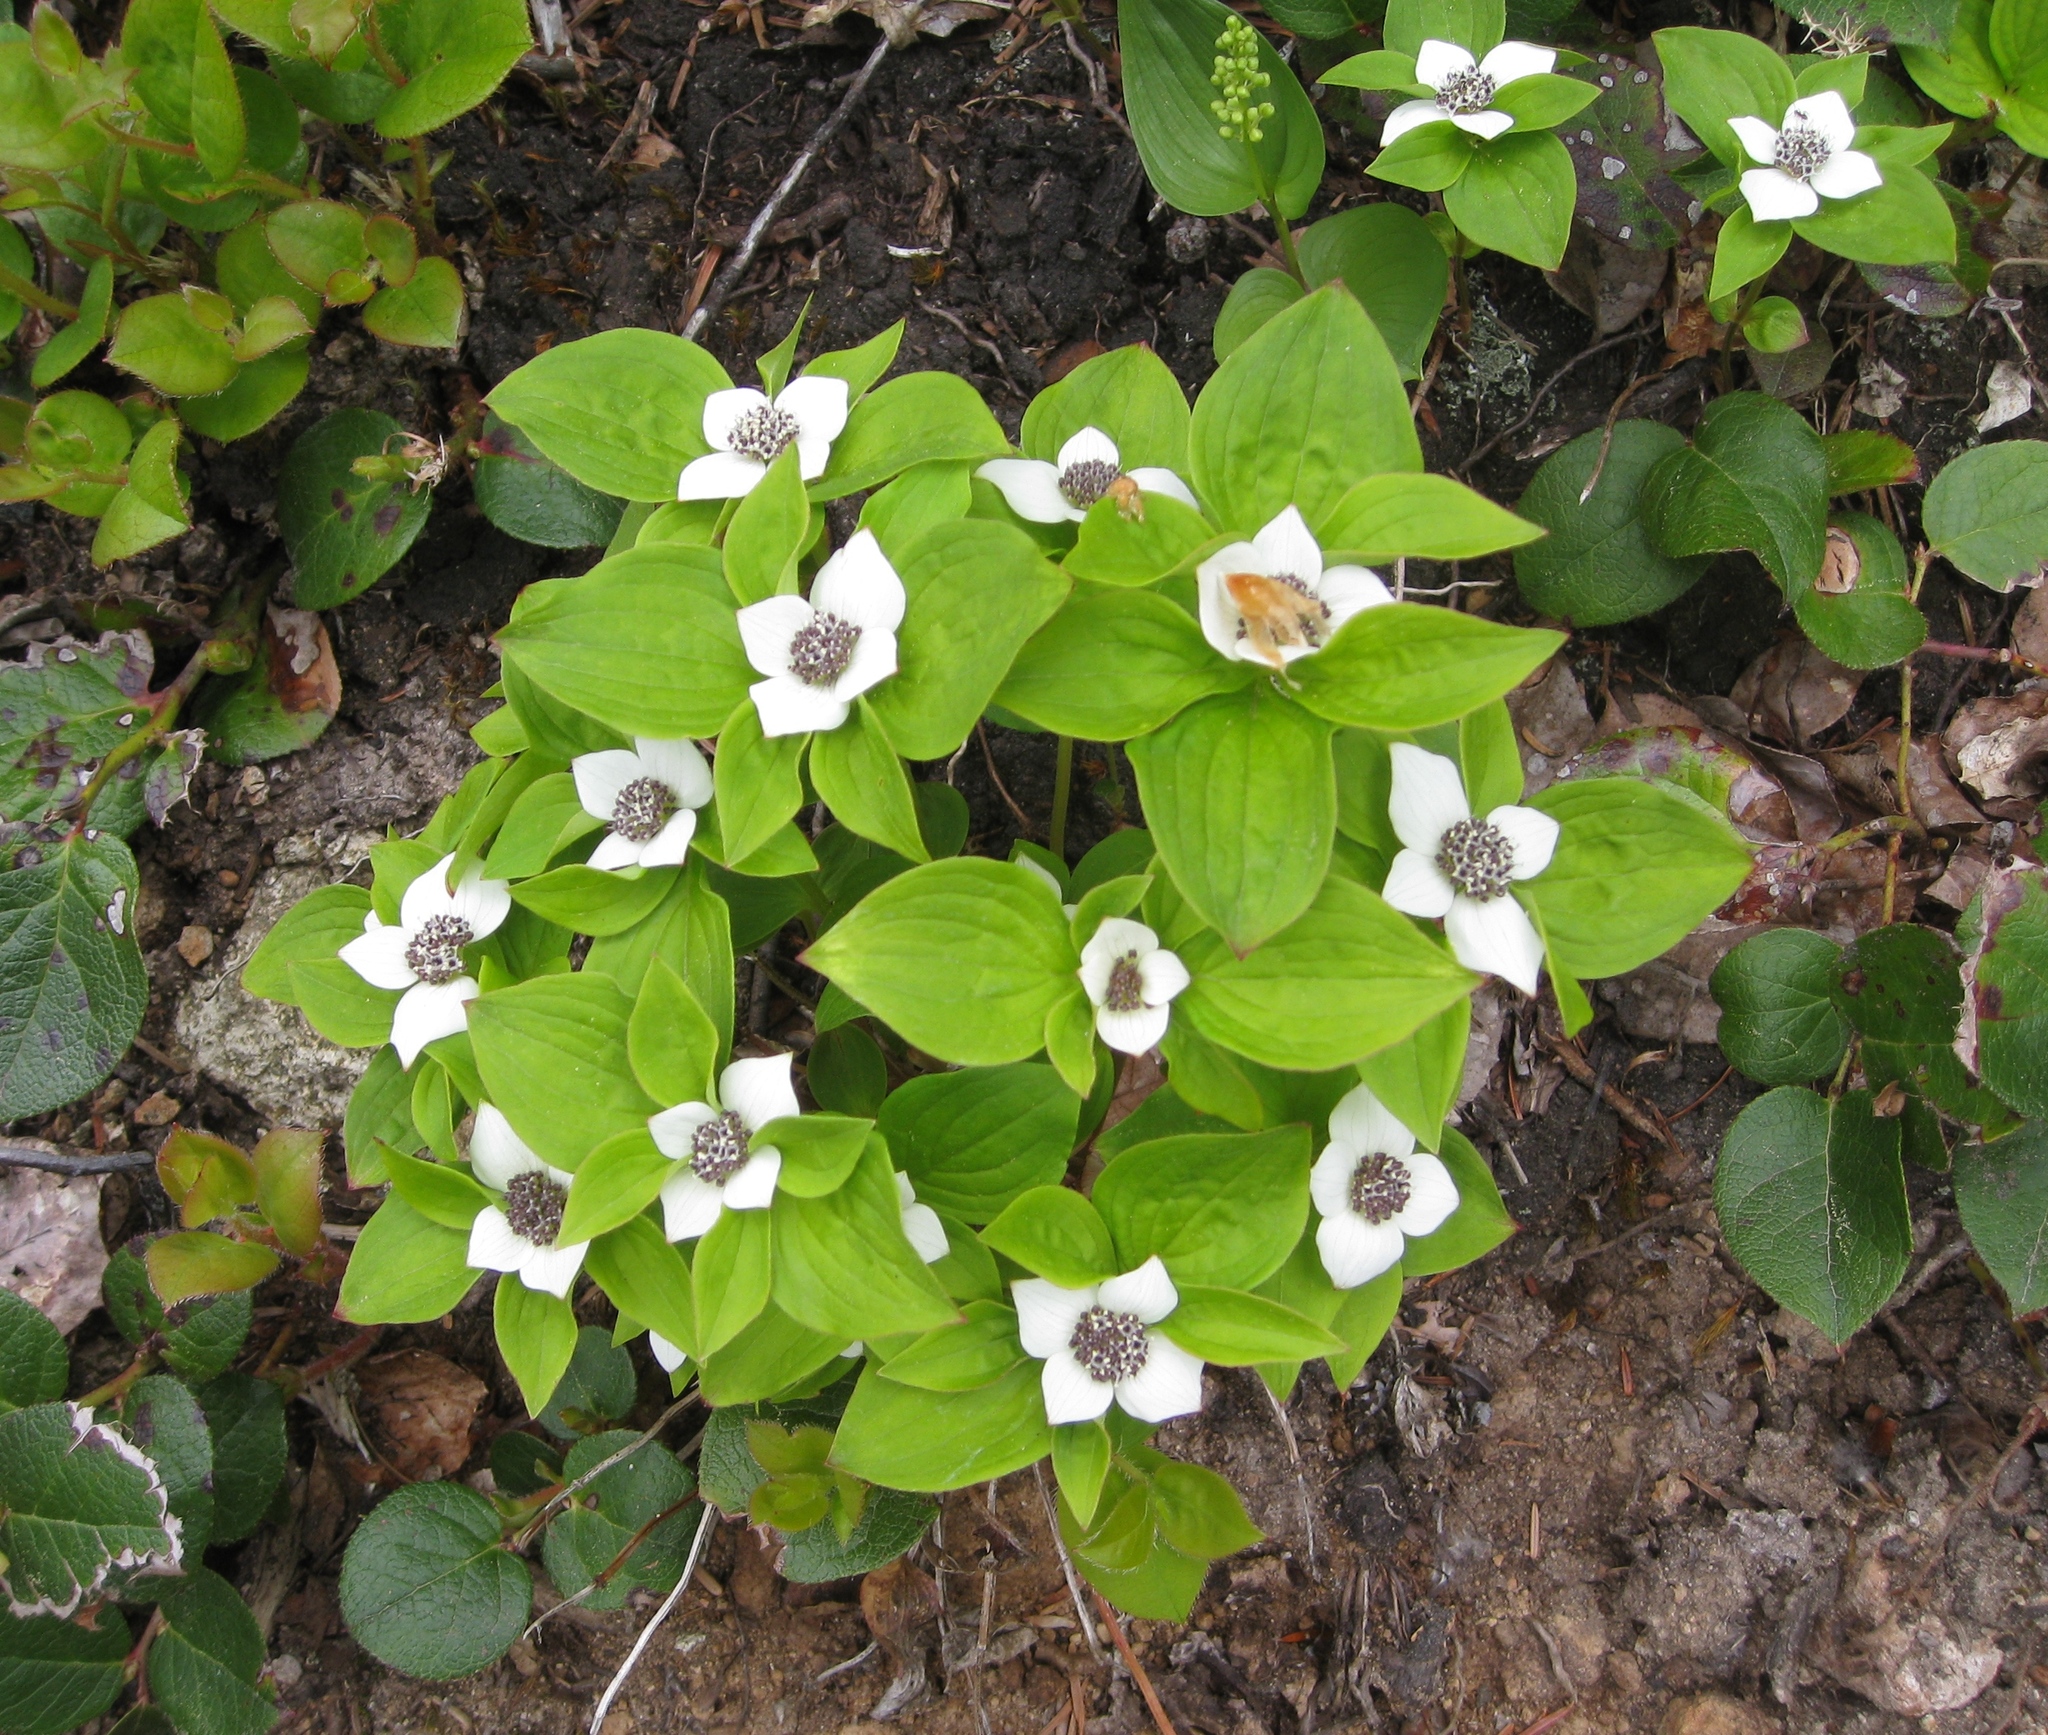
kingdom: Plantae
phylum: Tracheophyta
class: Magnoliopsida
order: Cornales
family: Cornaceae
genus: Cornus
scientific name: Cornus unalaschkensis
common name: Alaska bunchberry
